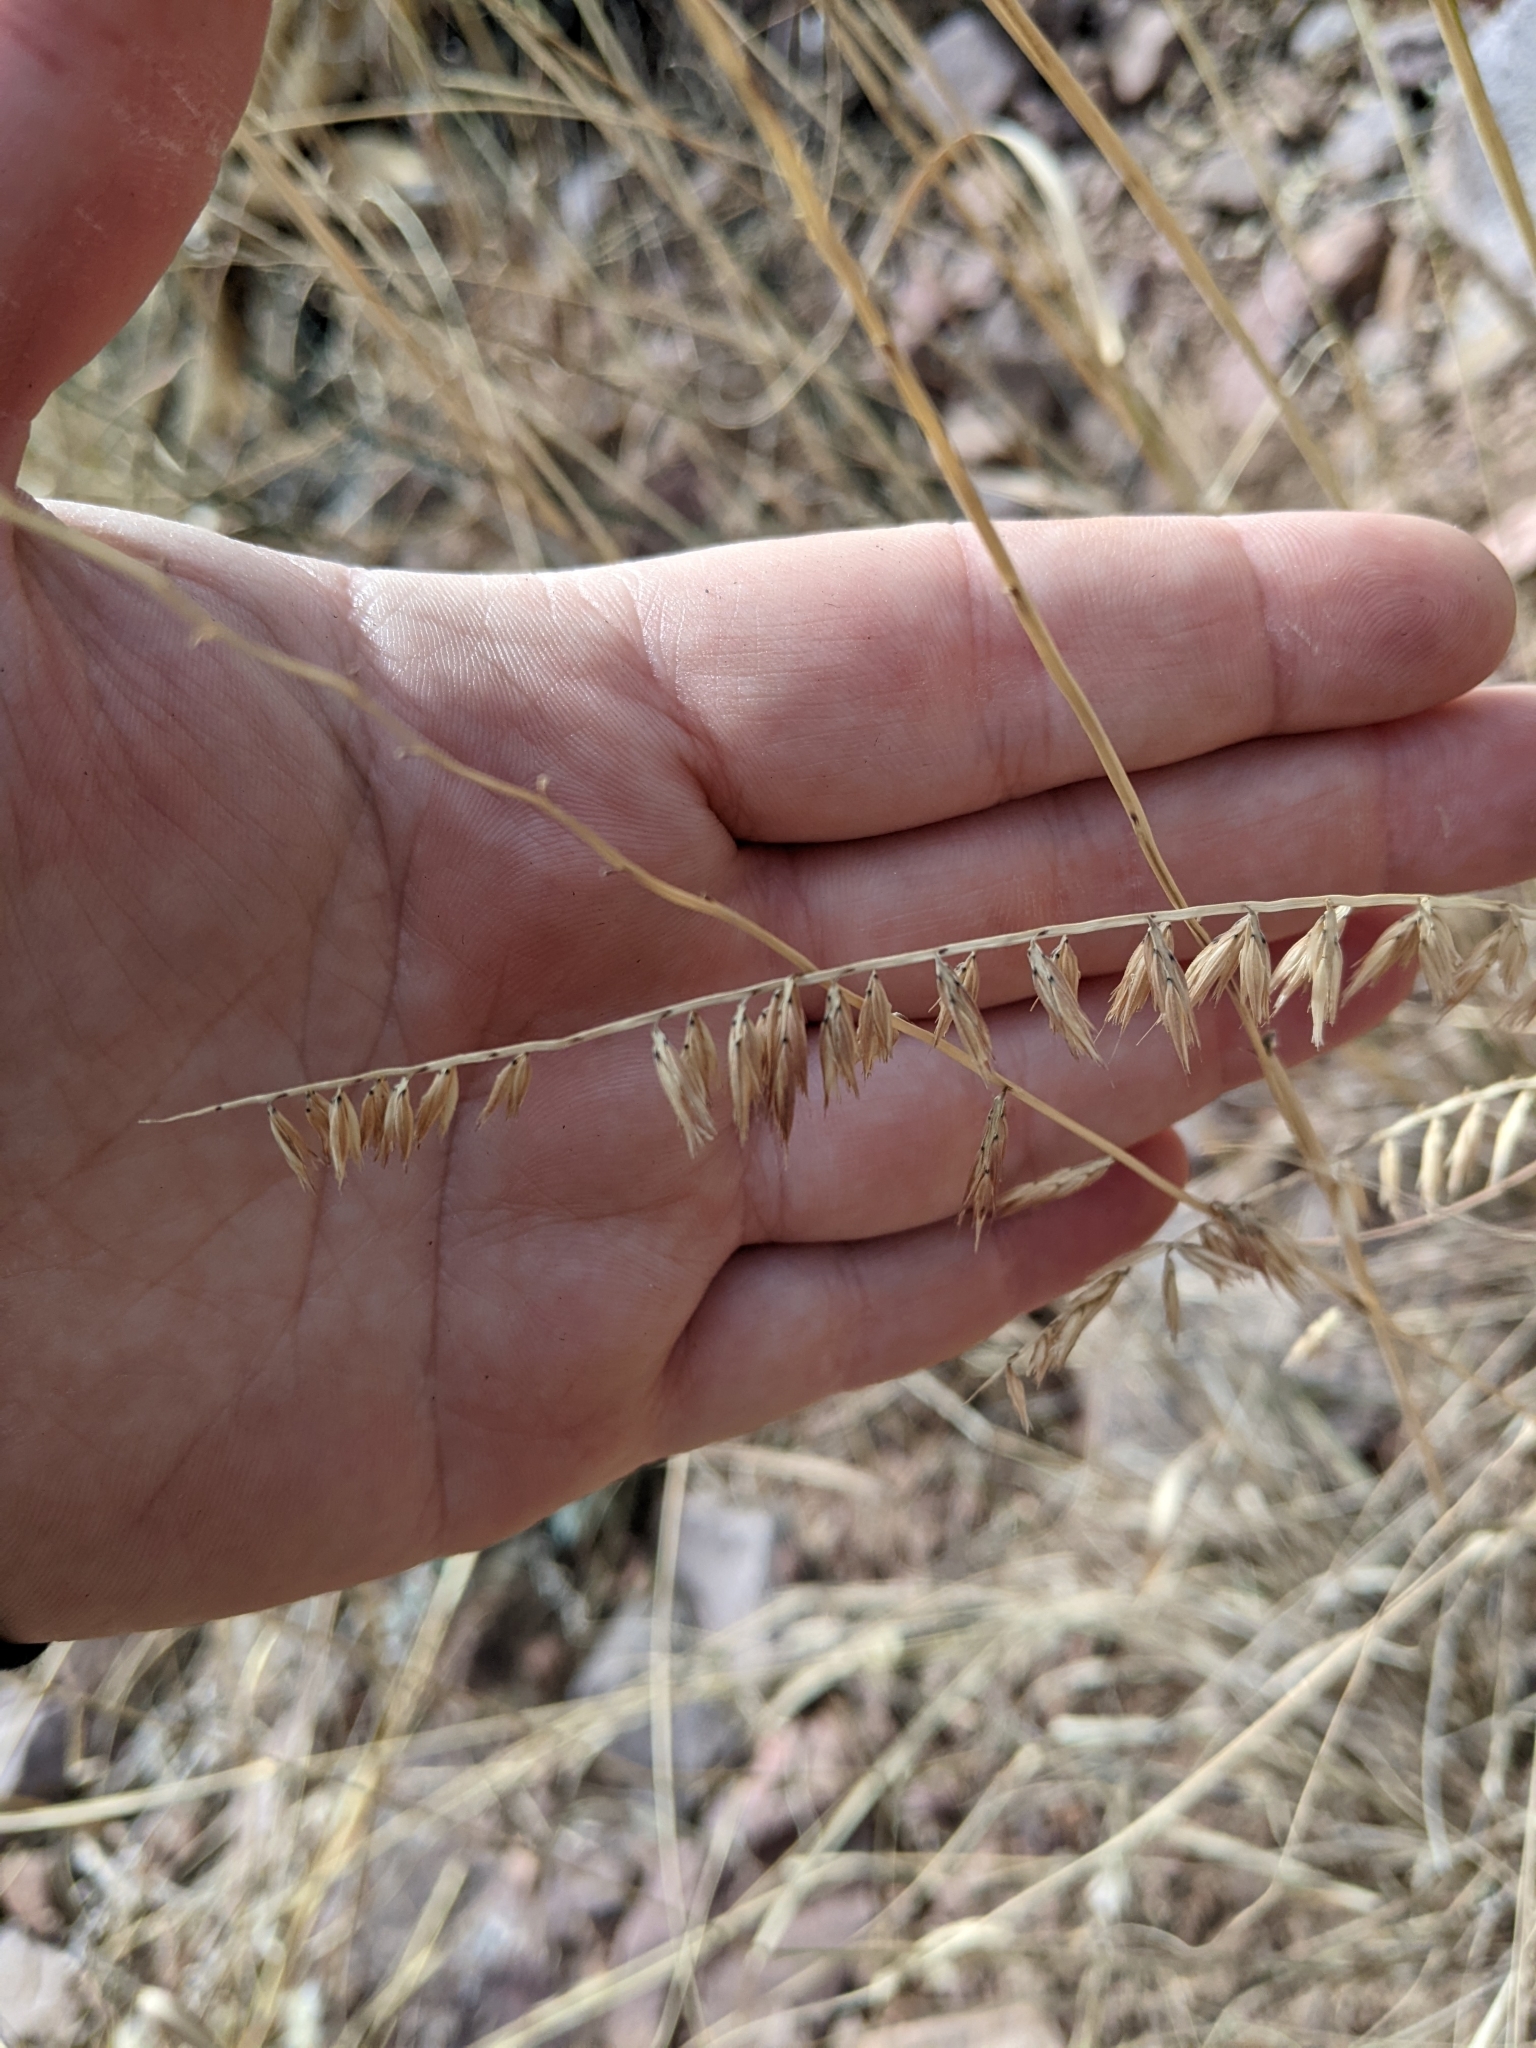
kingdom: Plantae
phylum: Tracheophyta
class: Liliopsida
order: Poales
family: Poaceae
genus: Bouteloua
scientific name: Bouteloua curtipendula
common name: Side-oats grama
